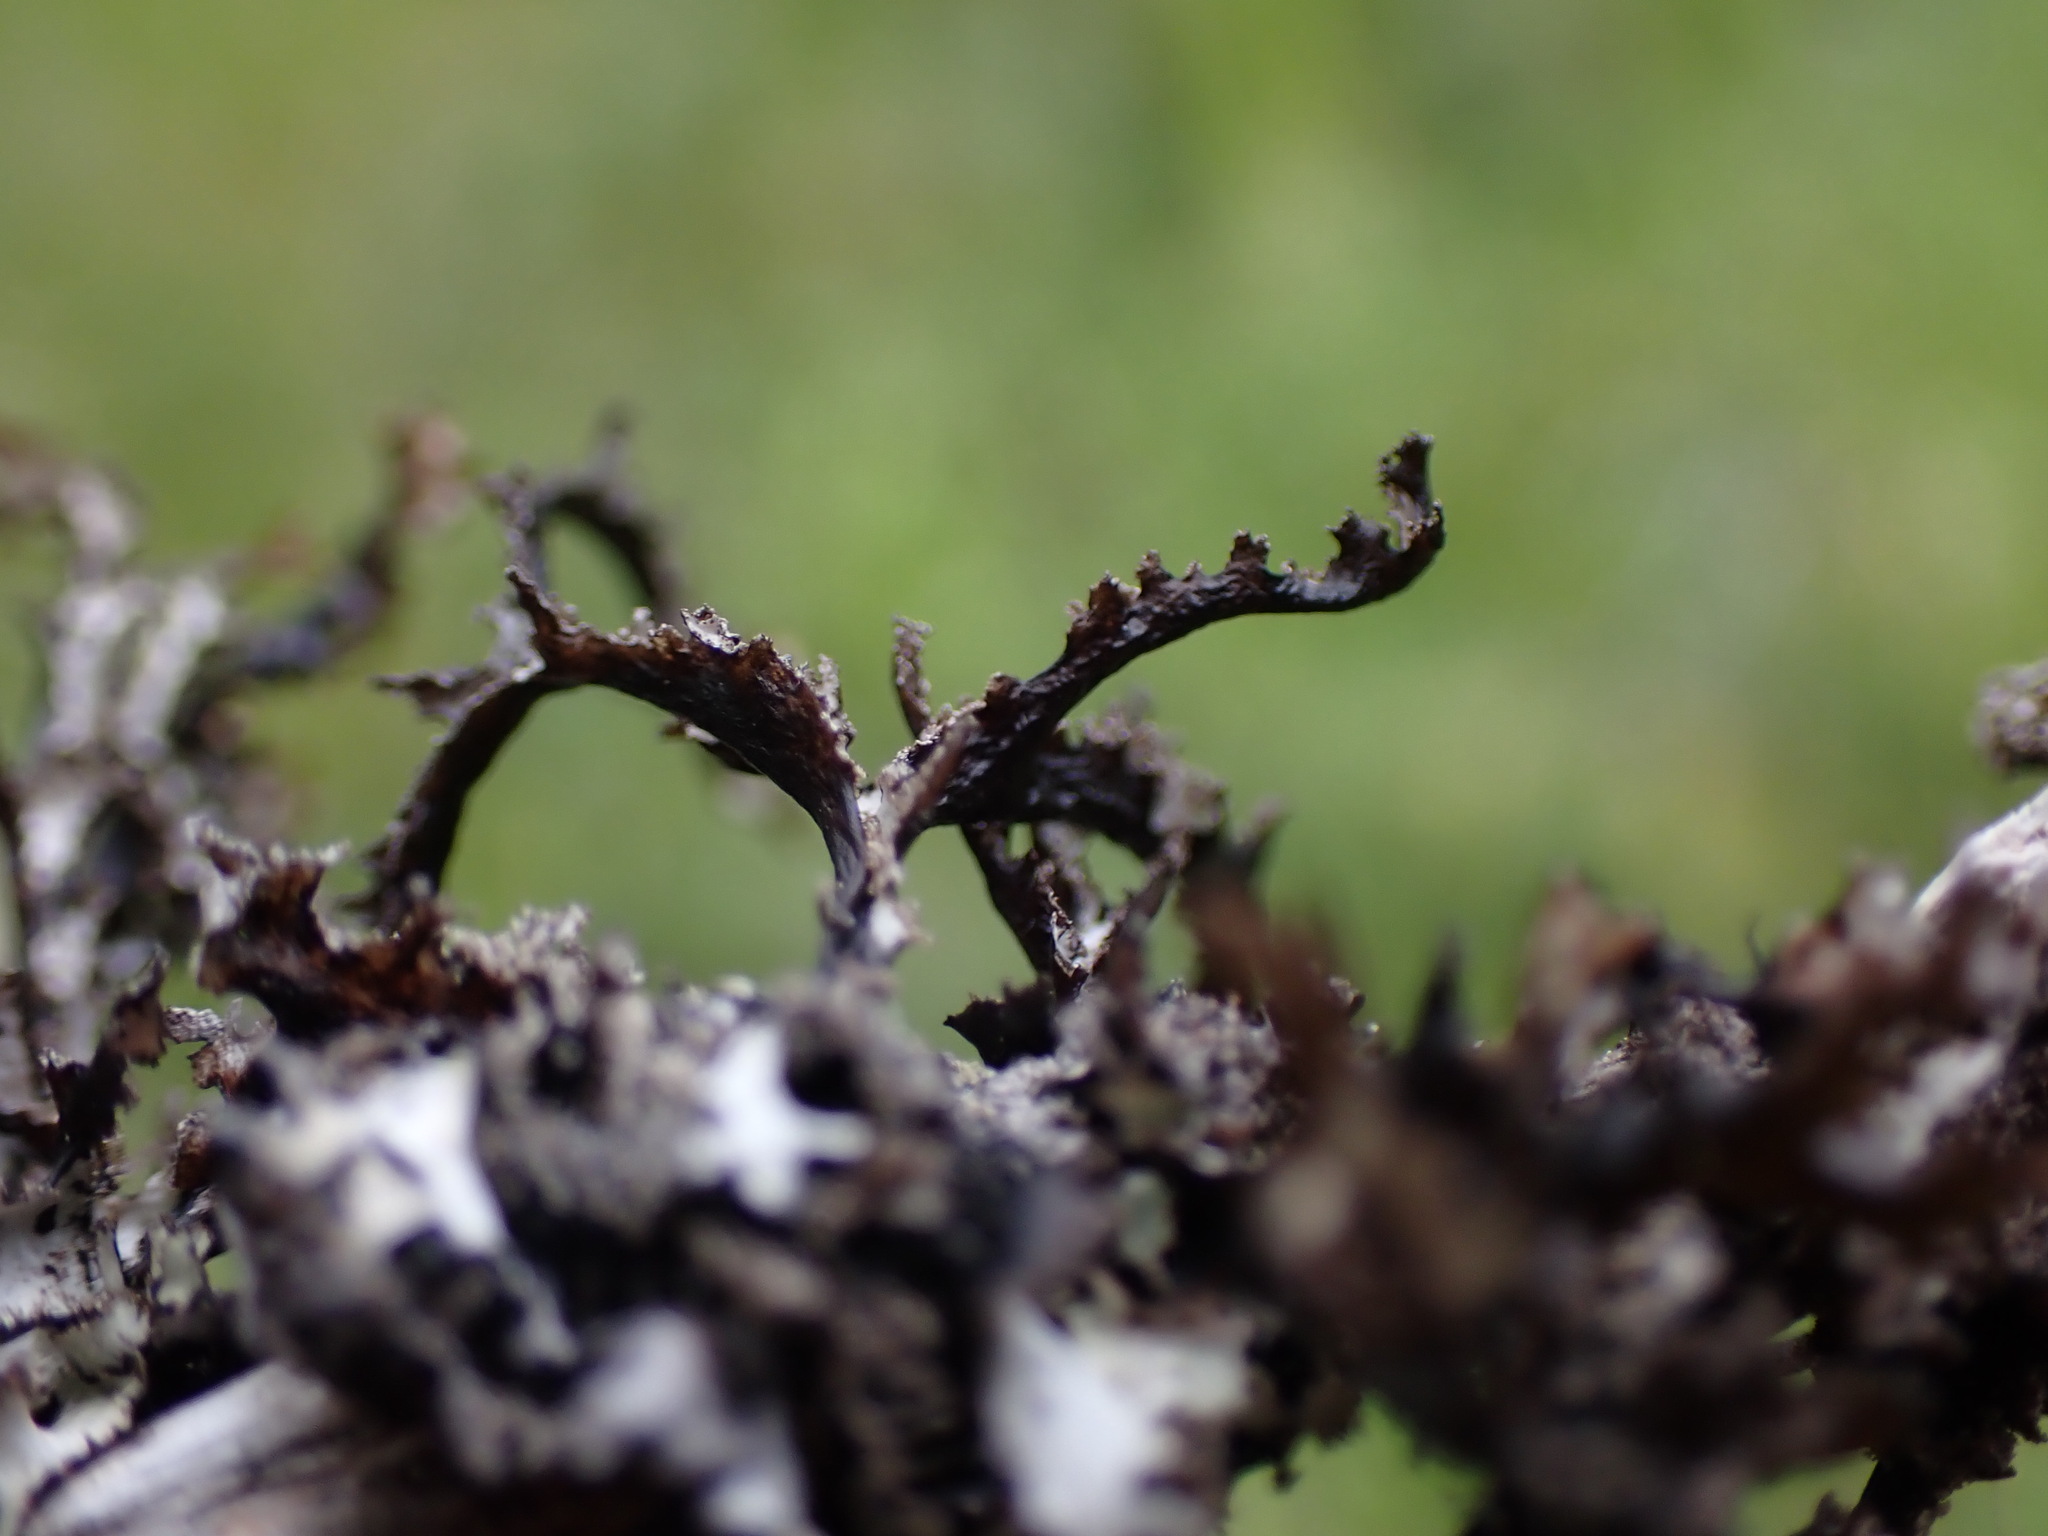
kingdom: Fungi
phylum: Ascomycota
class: Lecanoromycetes
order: Lecanorales
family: Parmeliaceae
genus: Platismatia
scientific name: Platismatia herrei
